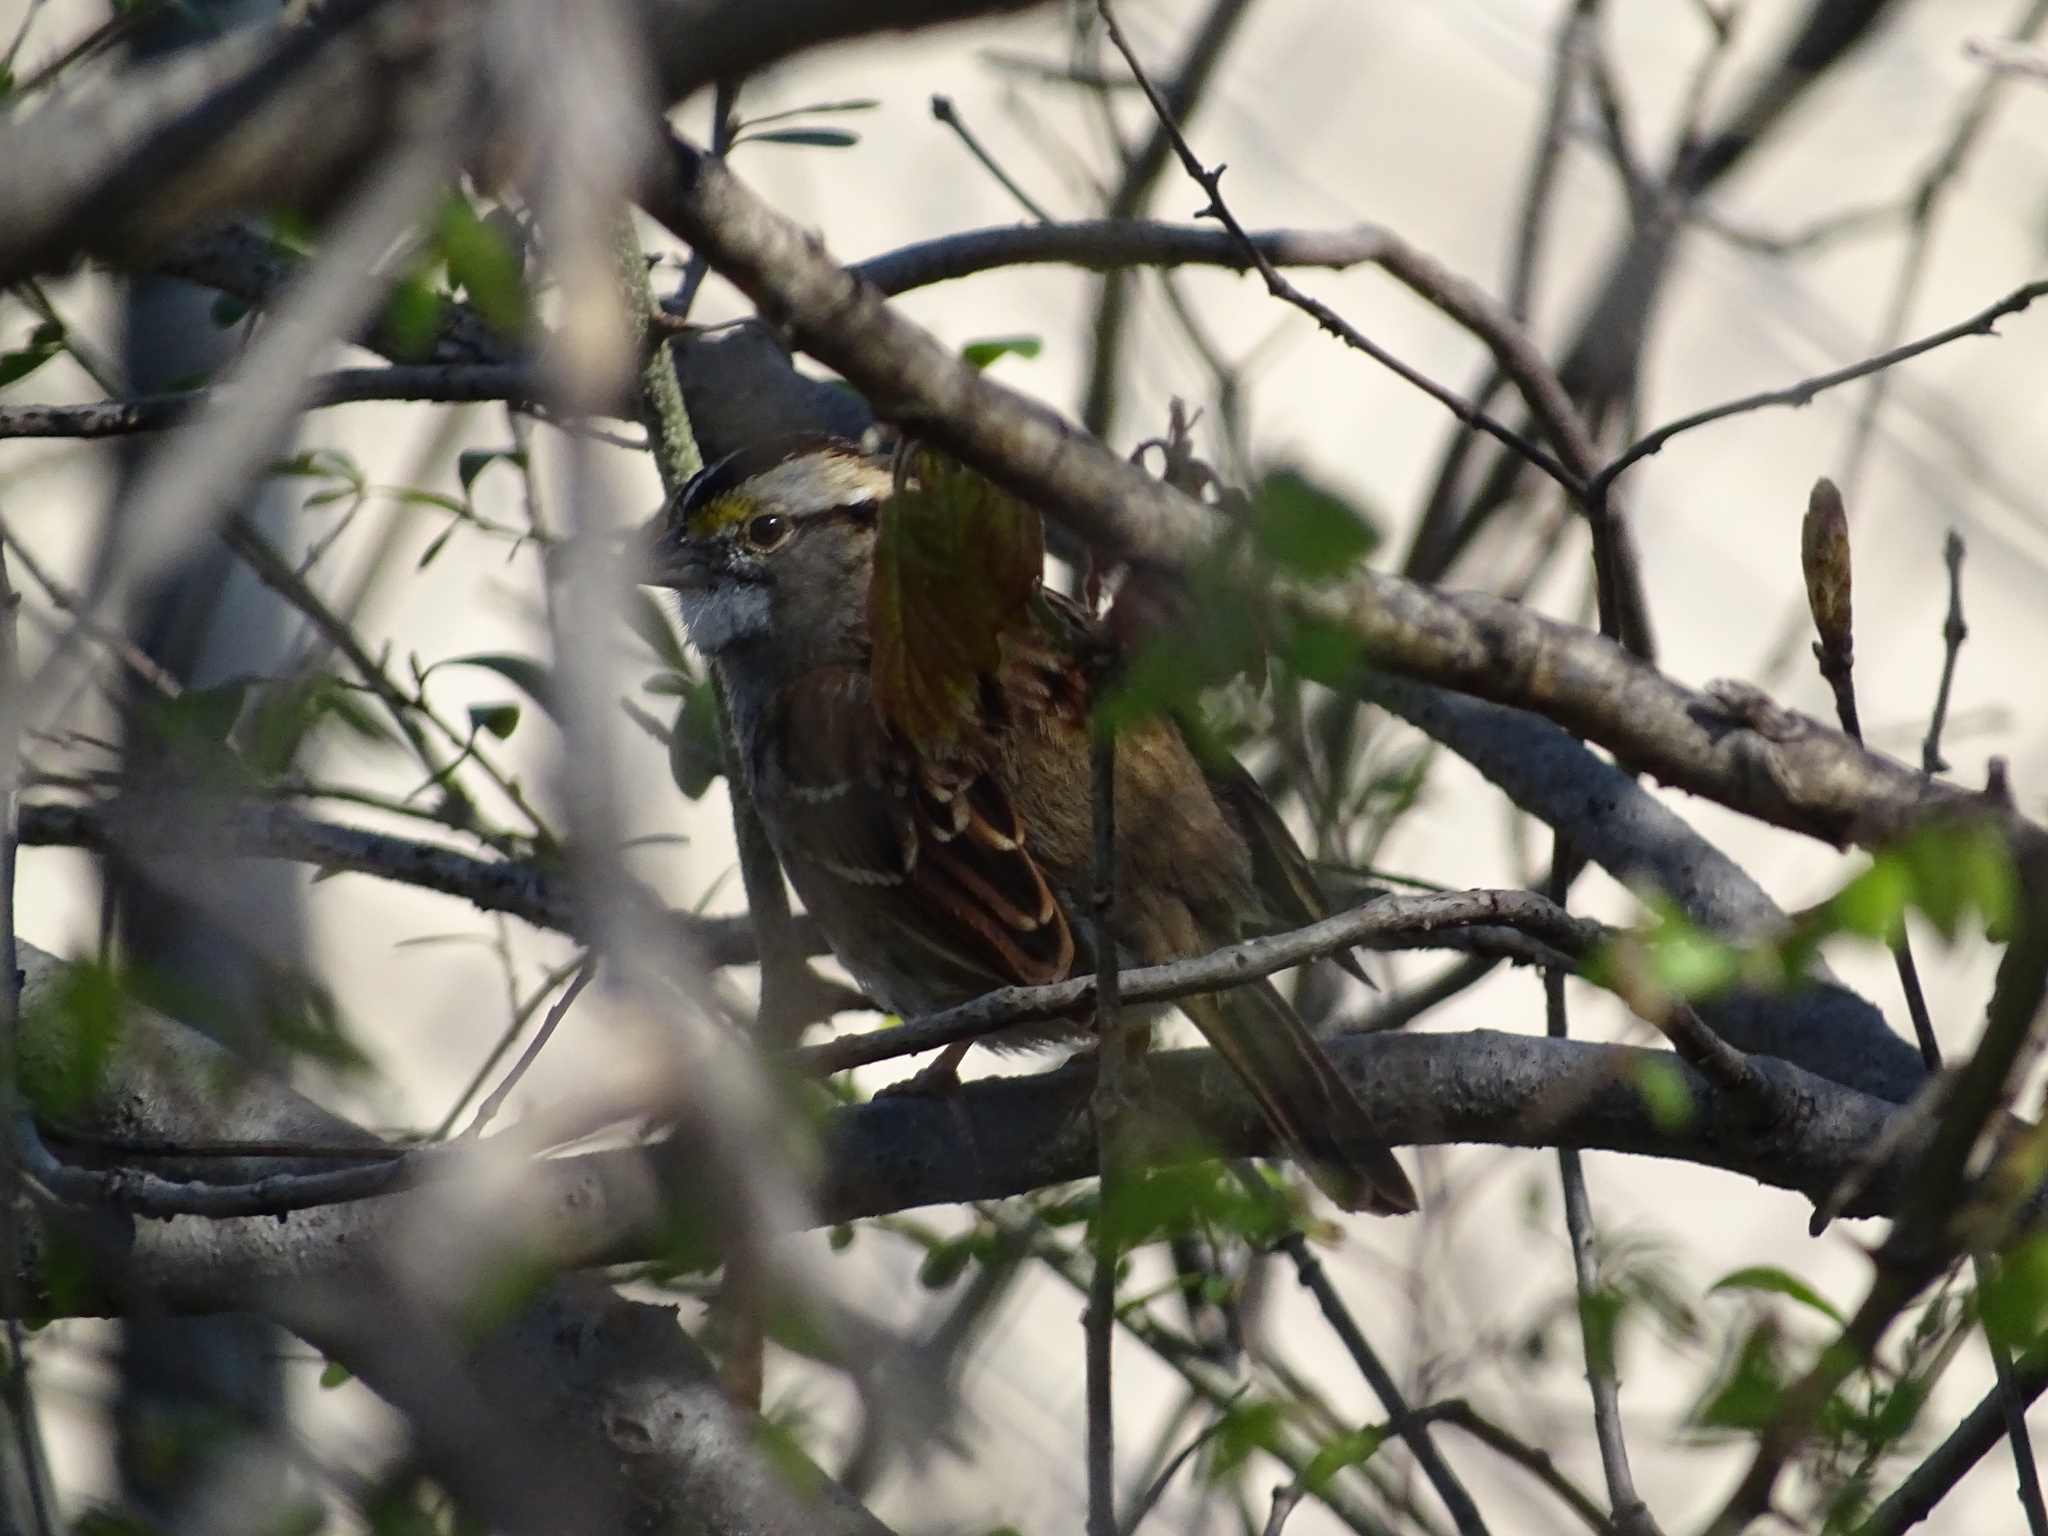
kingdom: Animalia
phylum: Chordata
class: Aves
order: Passeriformes
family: Passerellidae
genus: Zonotrichia
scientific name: Zonotrichia albicollis
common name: White-throated sparrow
